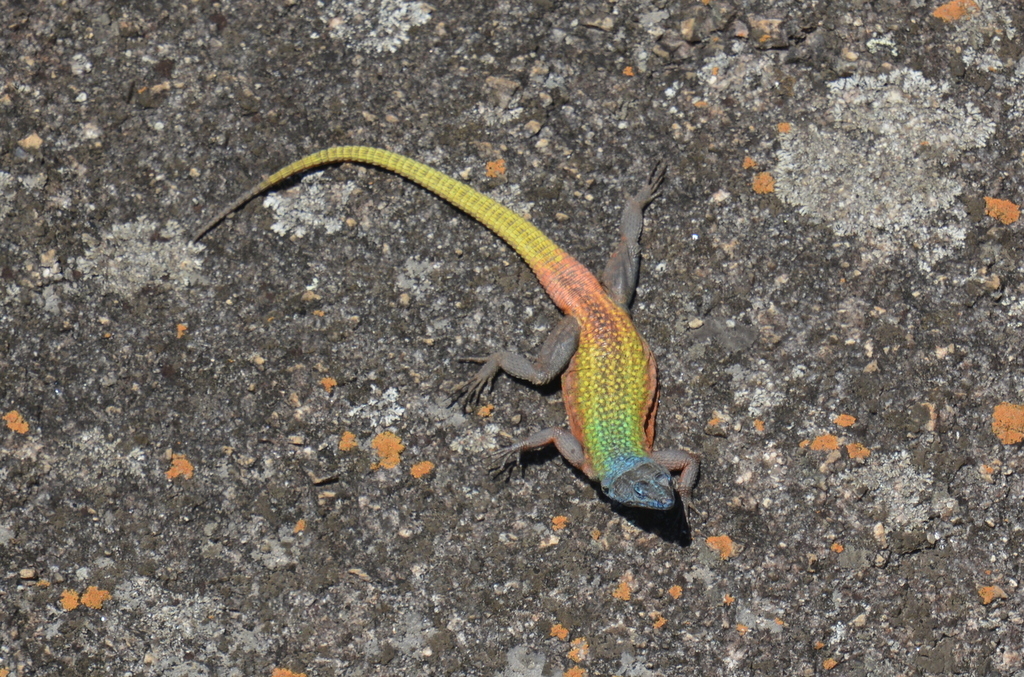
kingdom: Animalia
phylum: Chordata
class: Squamata
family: Cordylidae
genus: Platysaurus
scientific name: Platysaurus intermedius
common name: Common flat lizard
